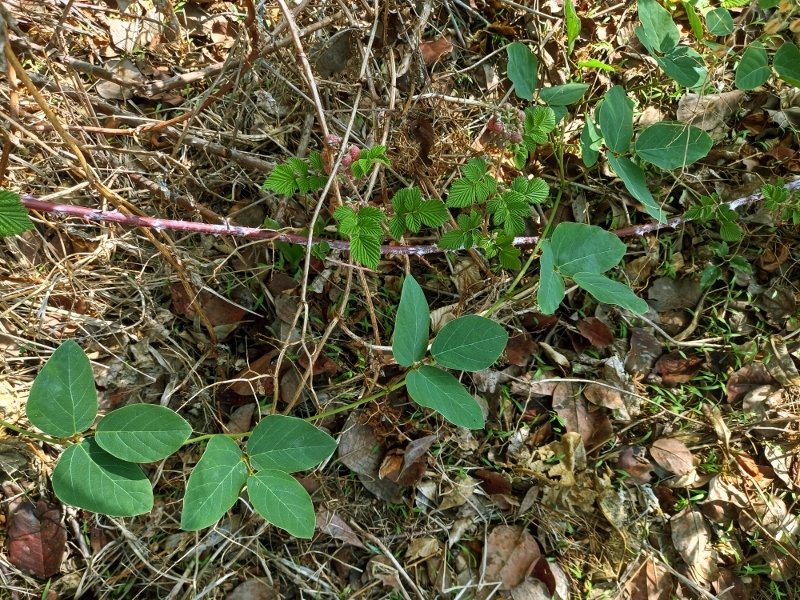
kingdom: Plantae
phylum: Tracheophyta
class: Magnoliopsida
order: Fabales
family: Fabaceae
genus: Mucuna
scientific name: Mucuna coriacea
